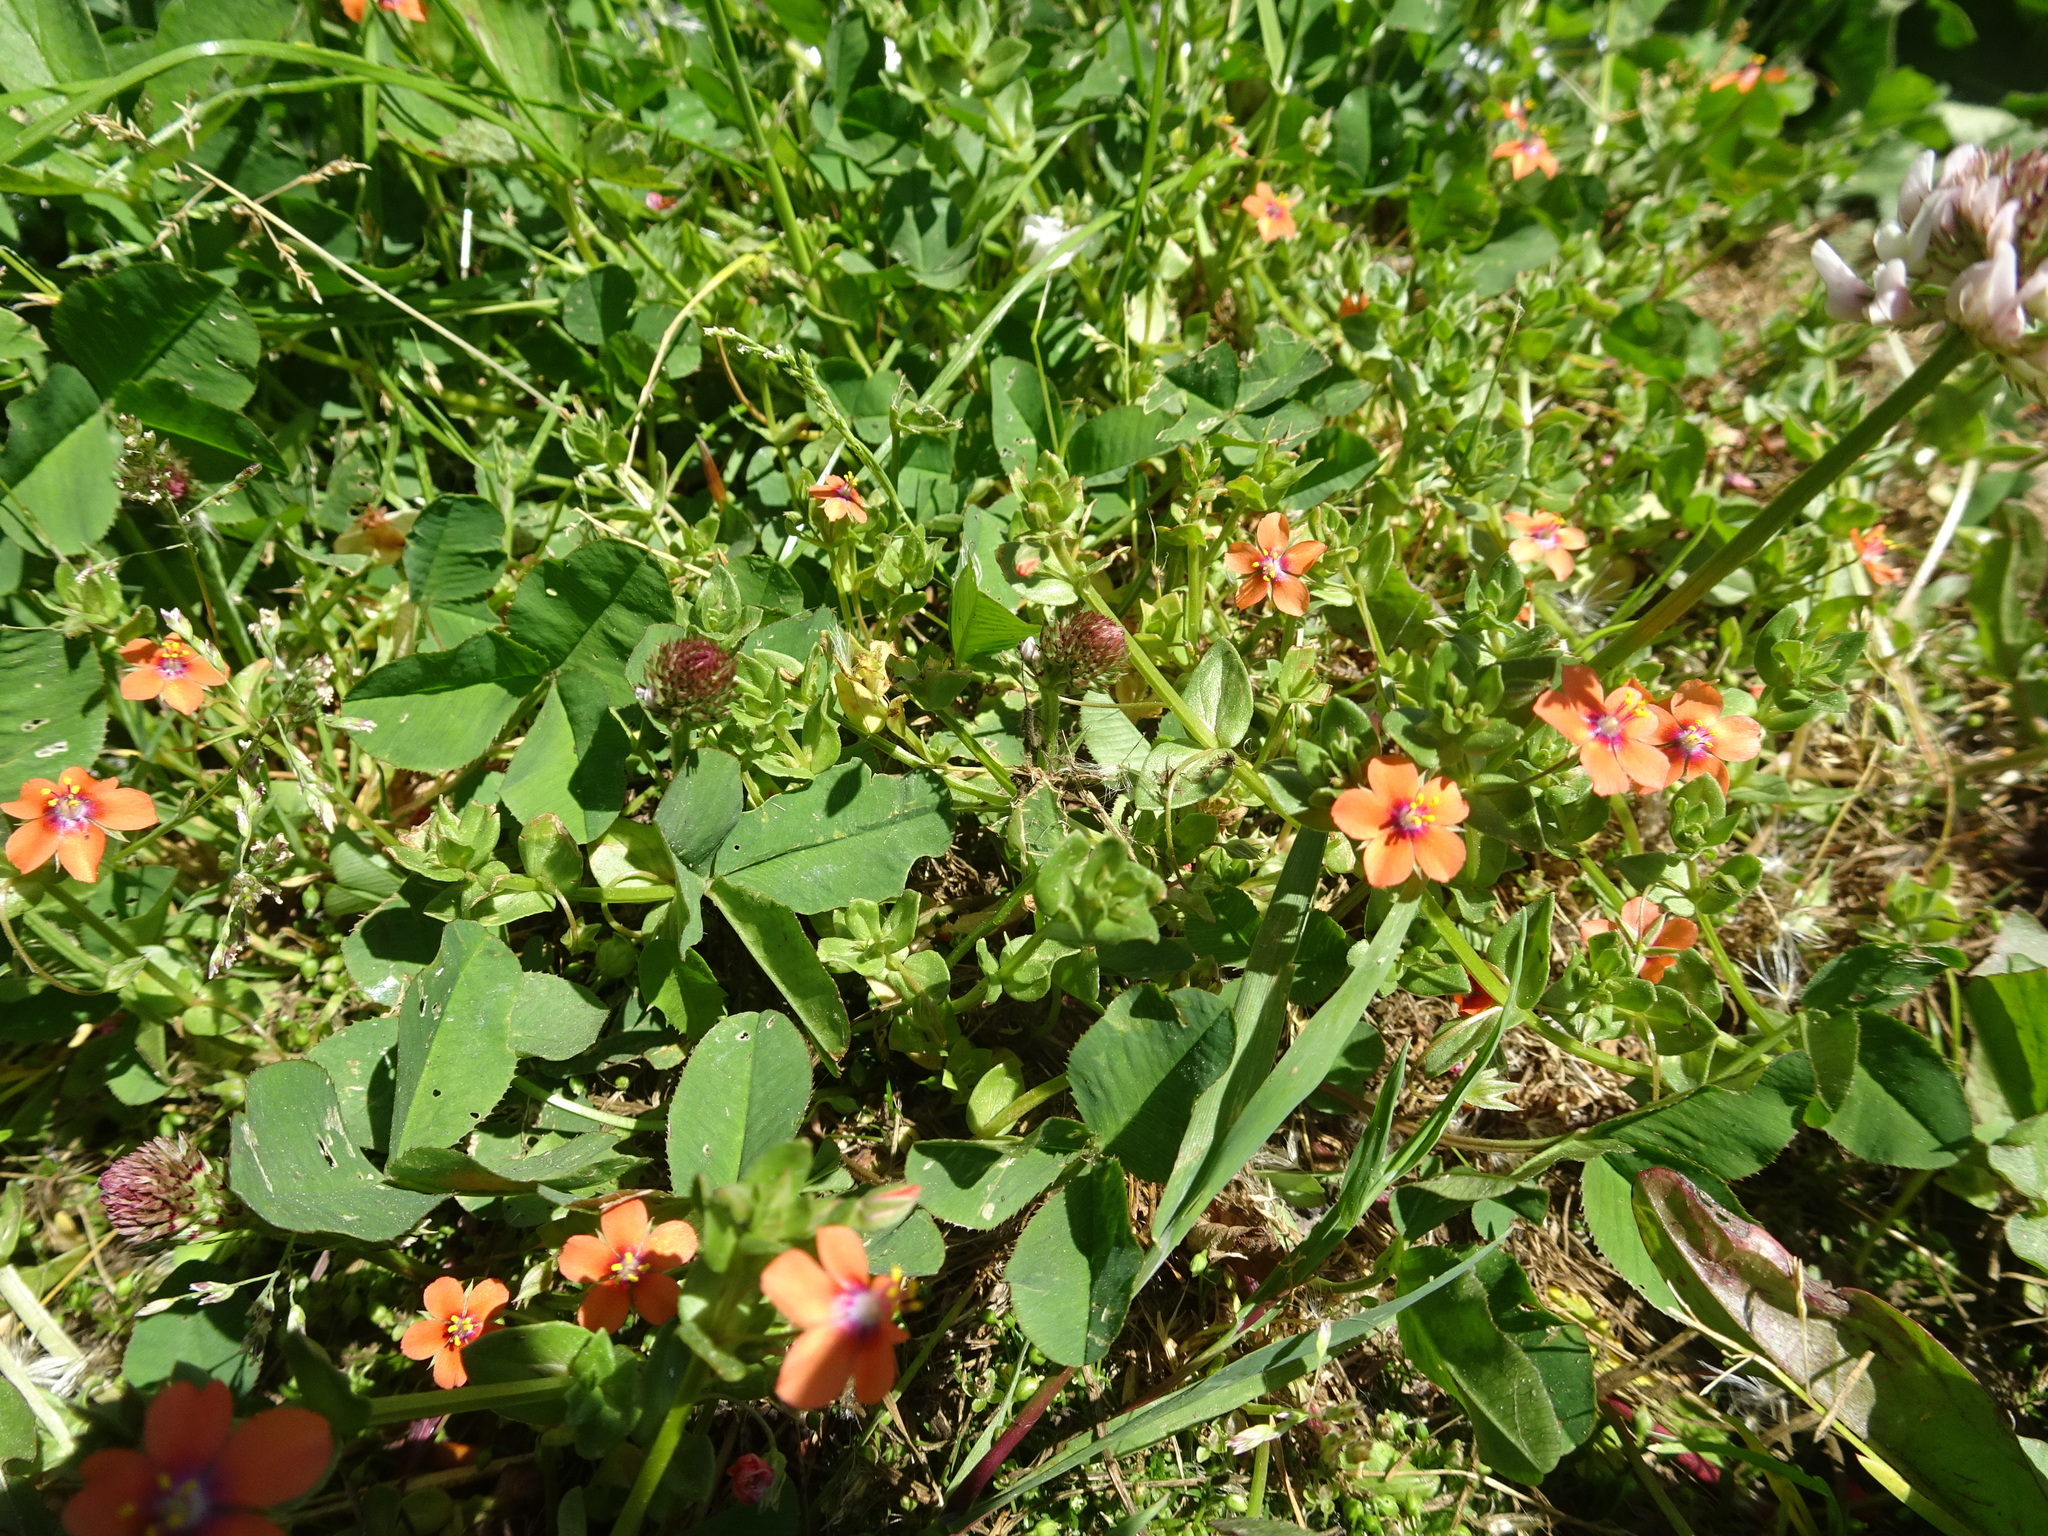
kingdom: Plantae
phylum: Tracheophyta
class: Magnoliopsida
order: Ericales
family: Primulaceae
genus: Lysimachia
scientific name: Lysimachia arvensis
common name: Scarlet pimpernel
